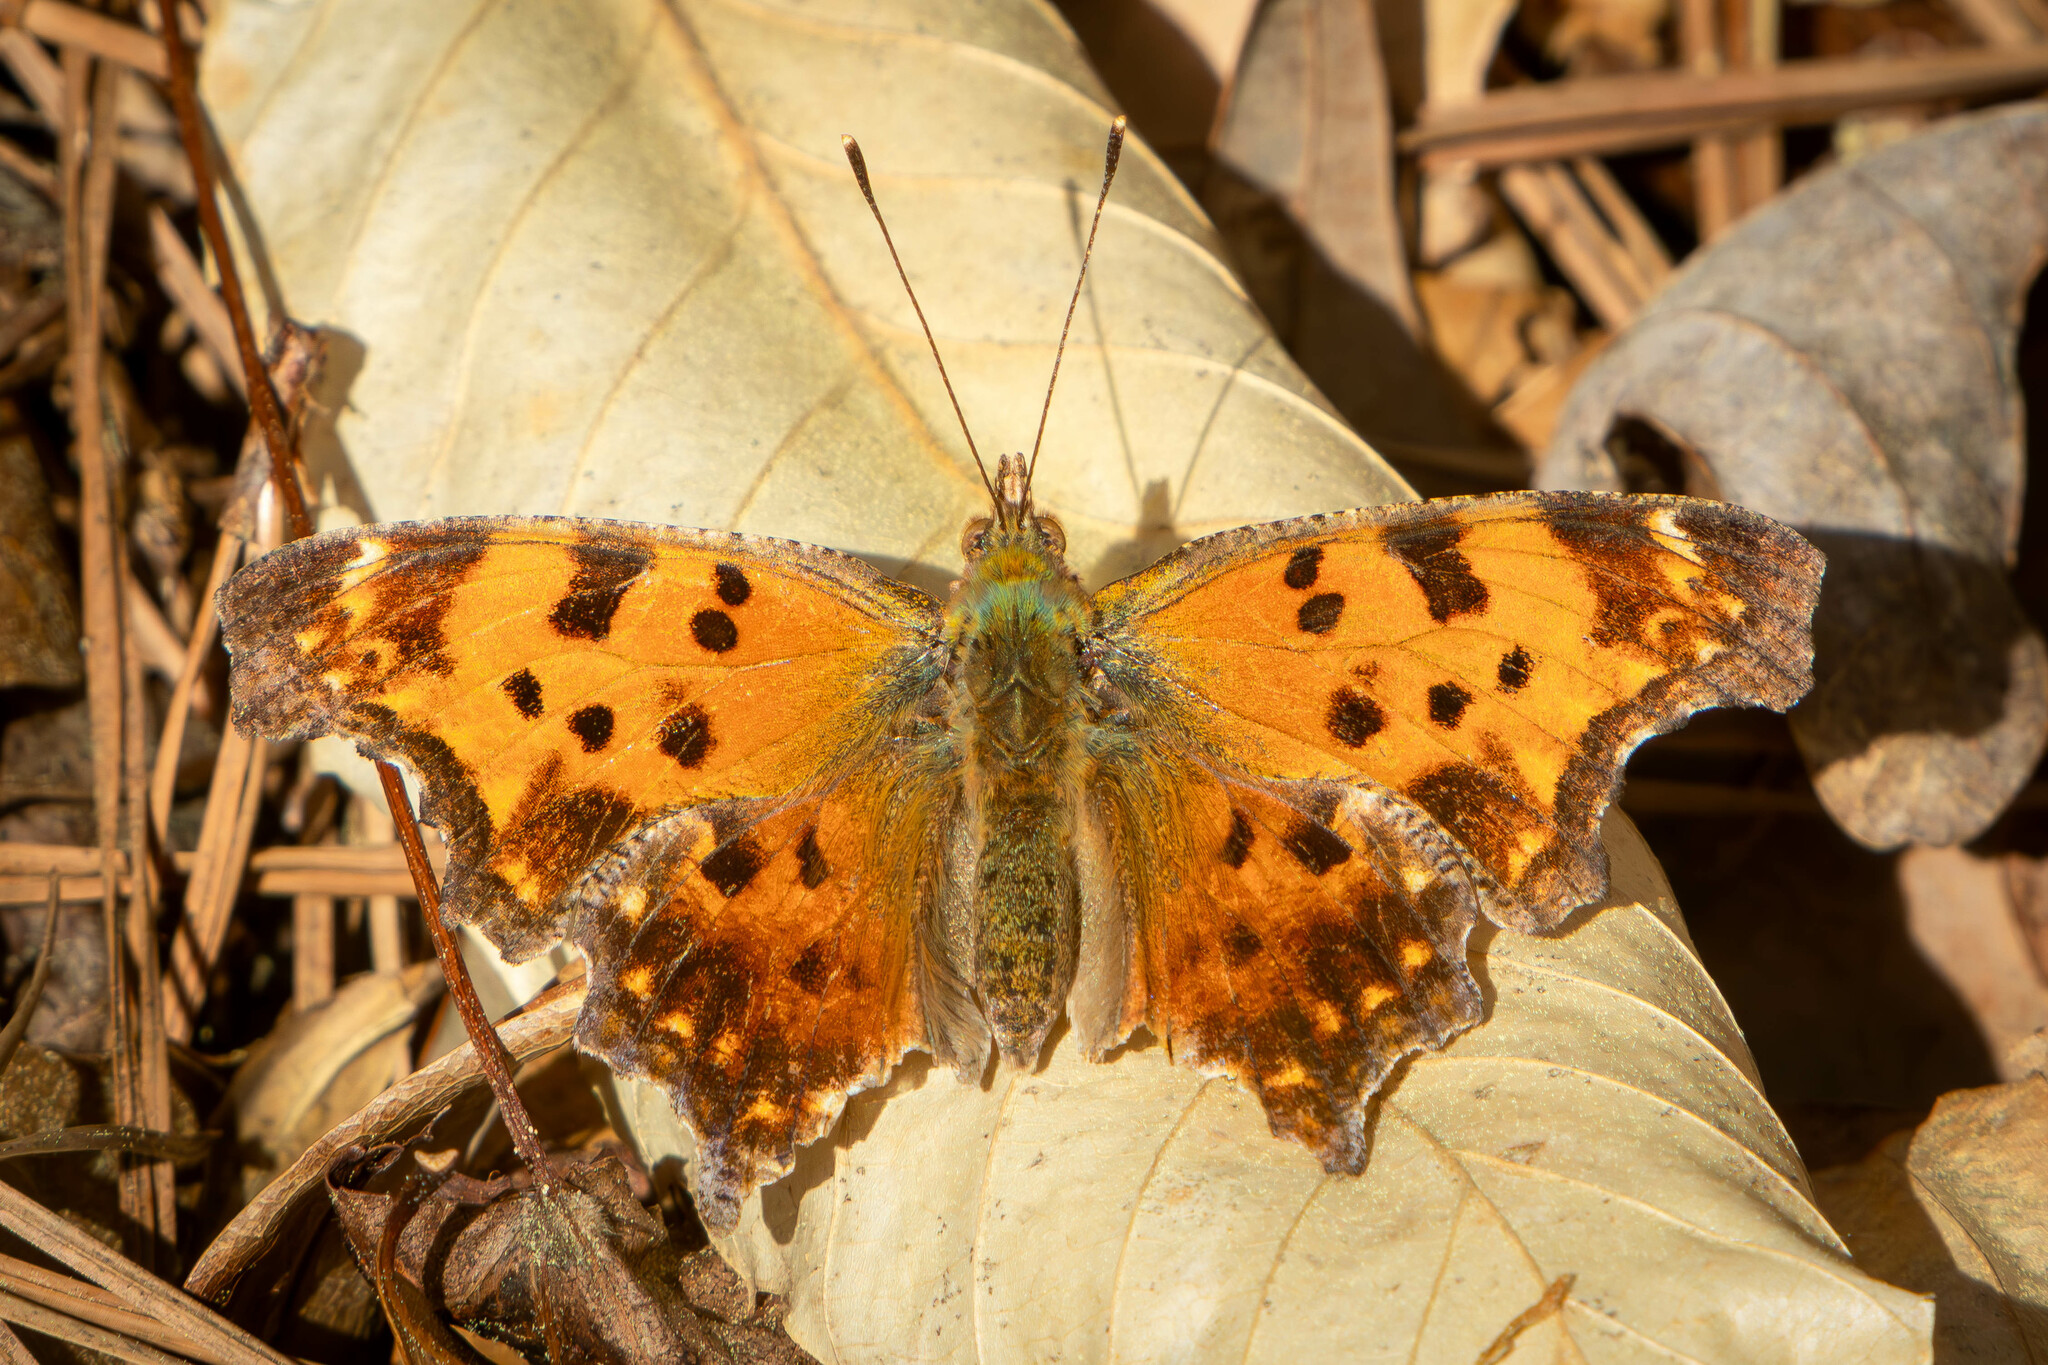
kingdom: Animalia
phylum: Arthropoda
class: Insecta
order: Lepidoptera
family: Nymphalidae
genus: Polygonia
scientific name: Polygonia comma
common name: Eastern comma
